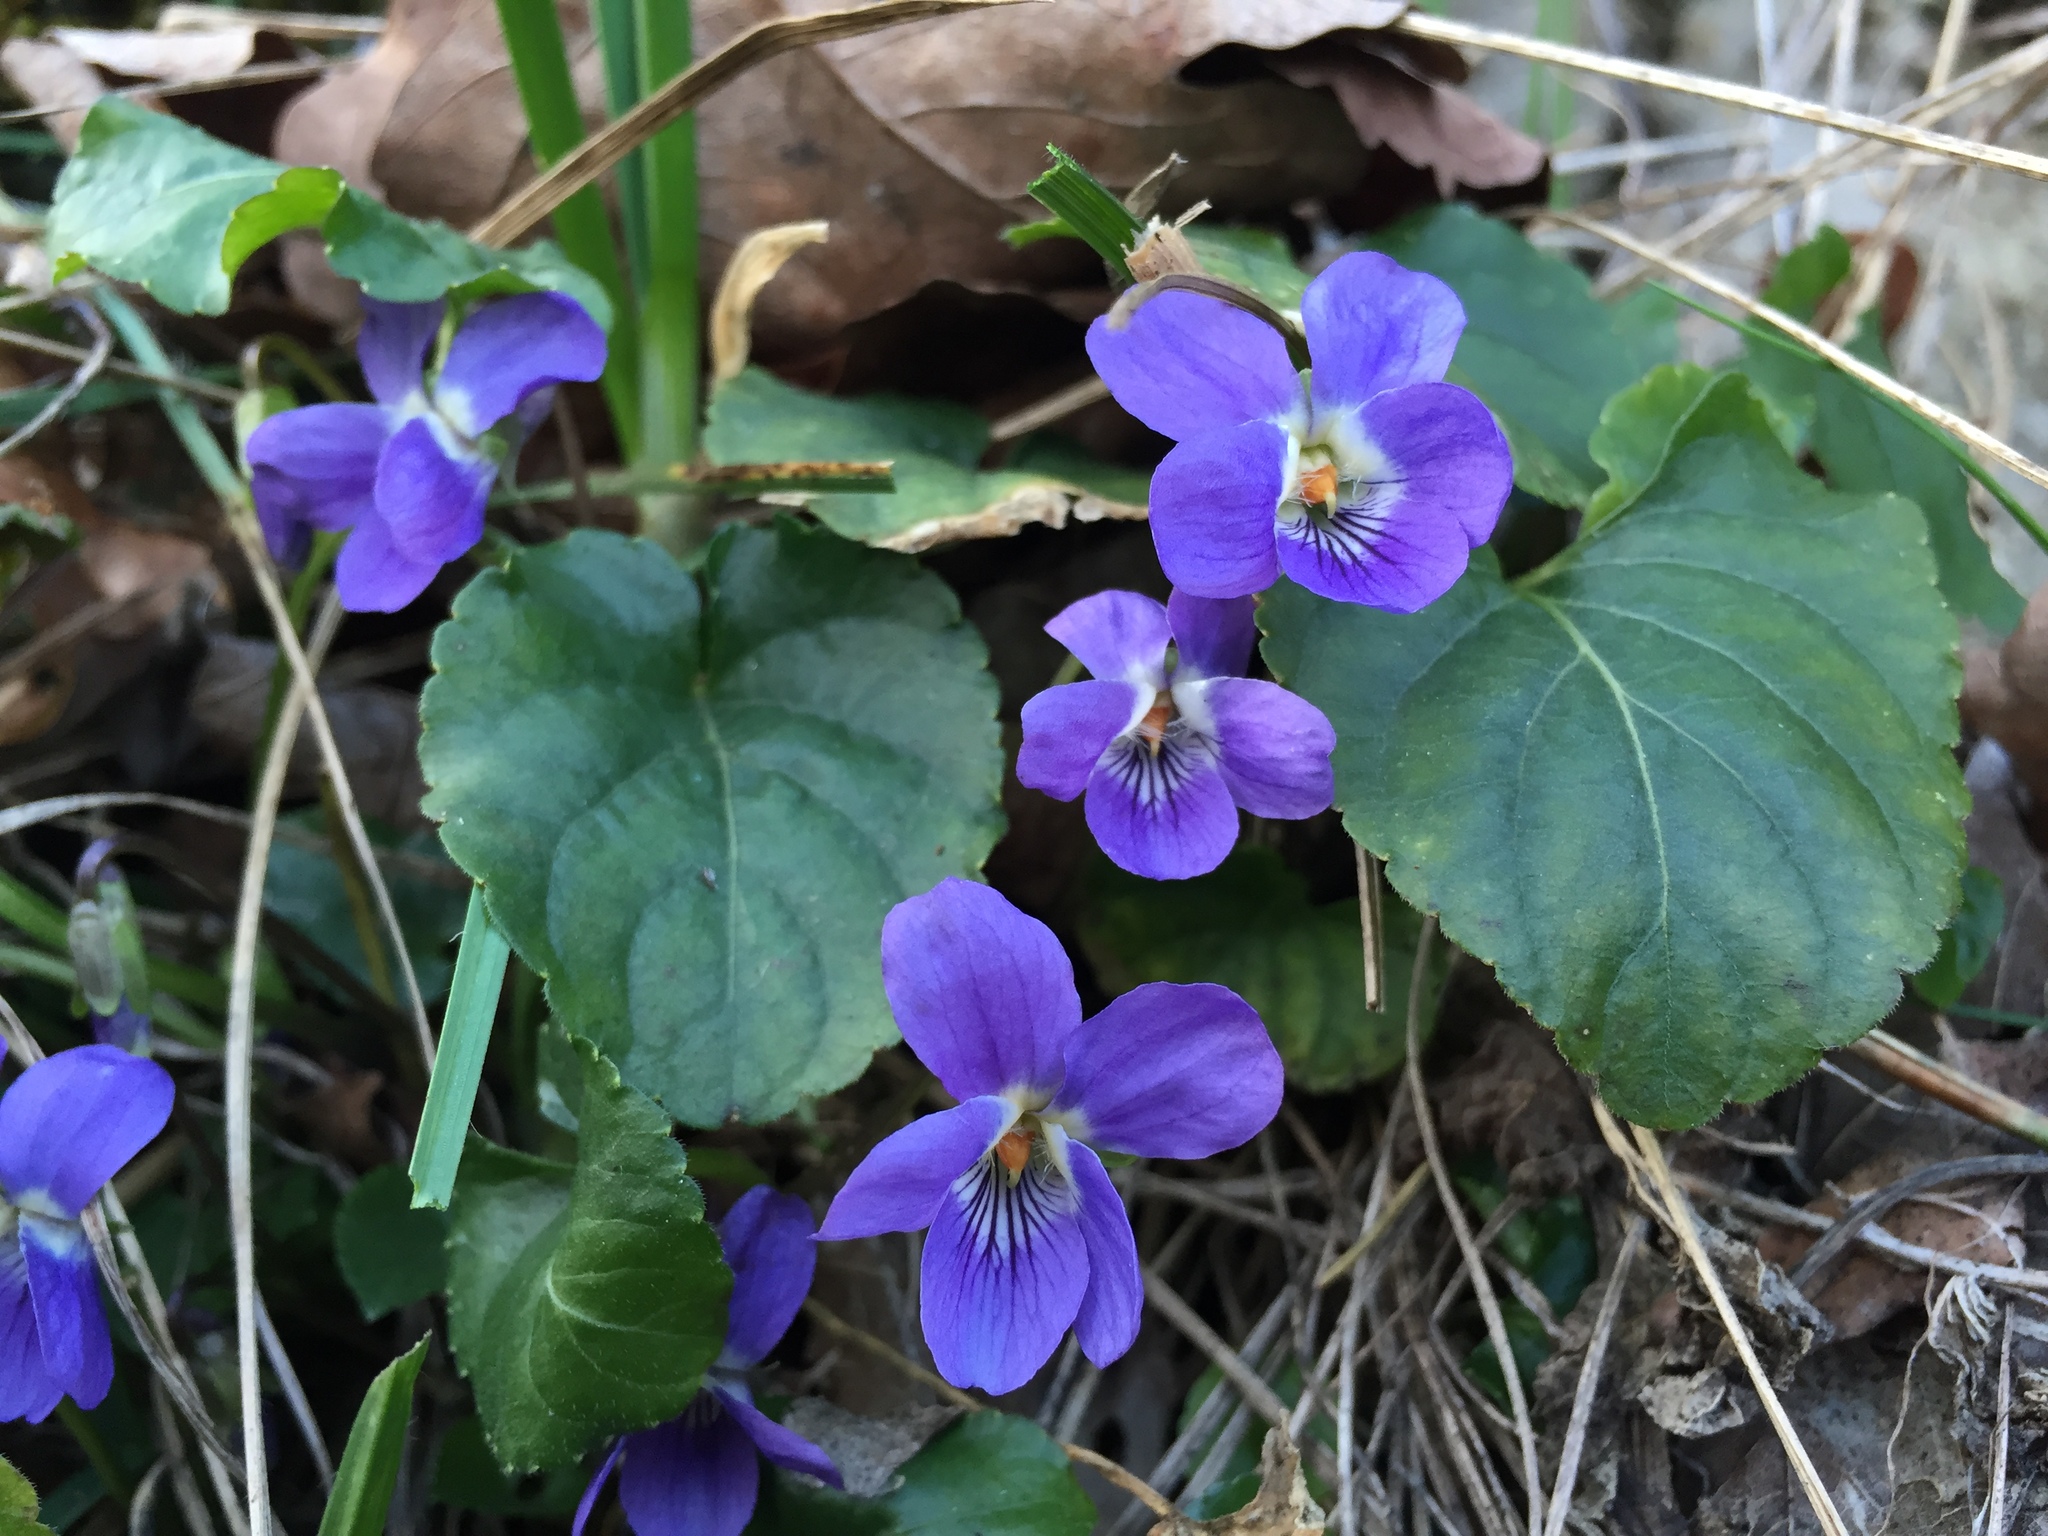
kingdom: Plantae
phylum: Tracheophyta
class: Magnoliopsida
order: Malpighiales
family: Violaceae
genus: Viola
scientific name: Viola hirta
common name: Hairy violet
